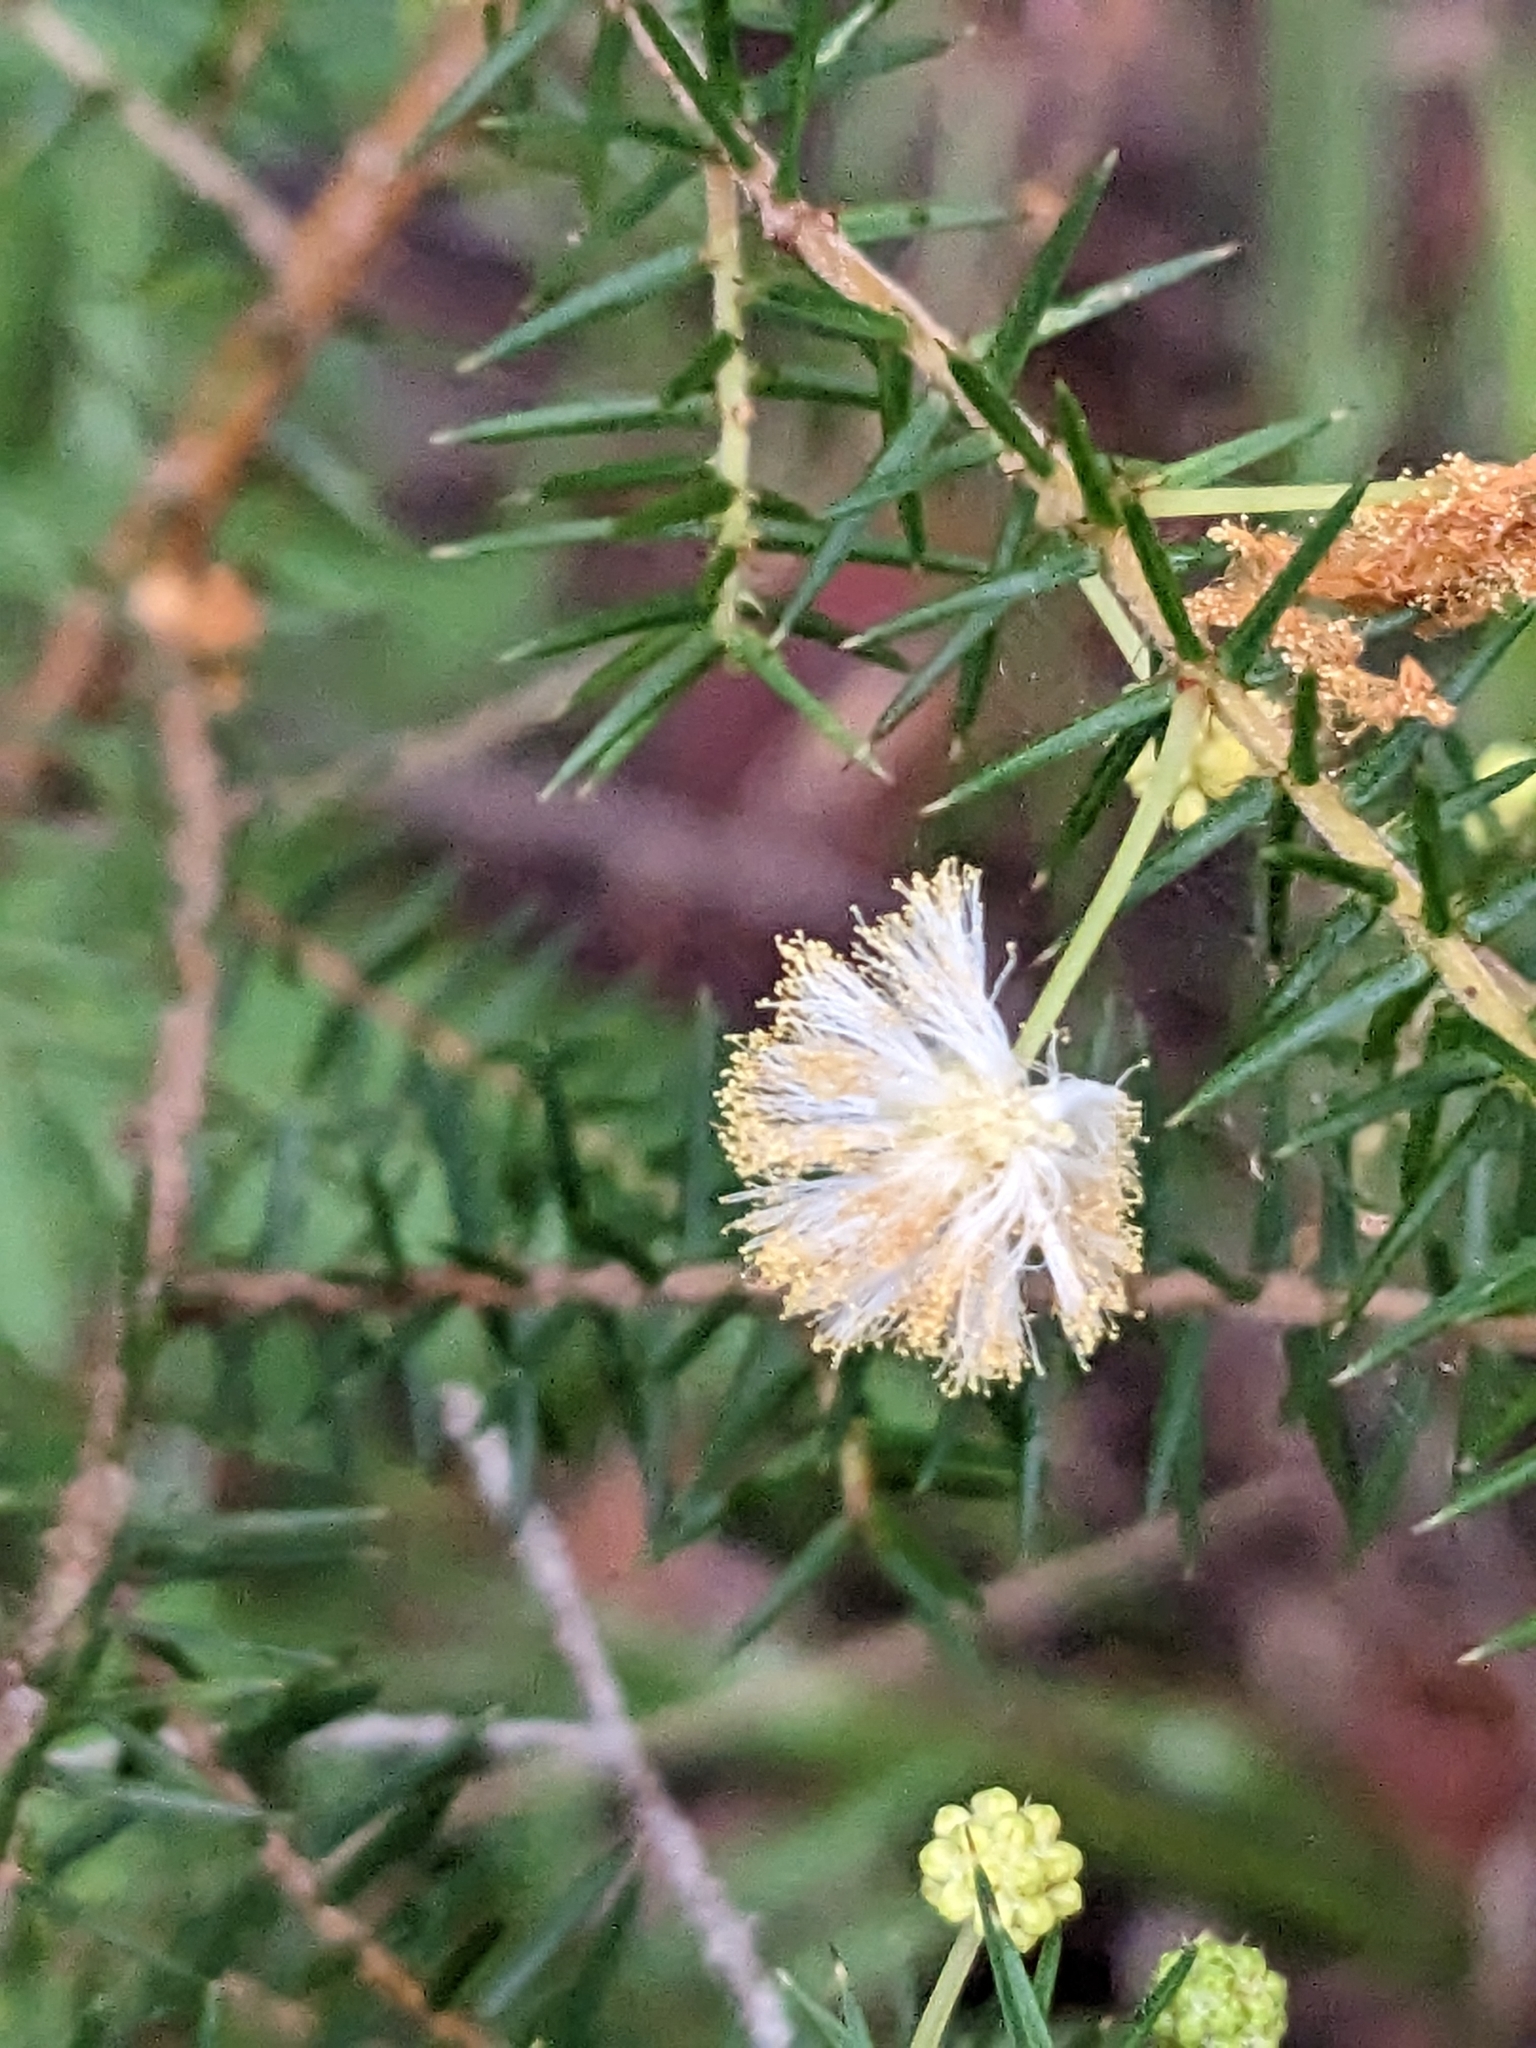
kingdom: Plantae
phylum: Tracheophyta
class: Magnoliopsida
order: Fabales
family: Fabaceae
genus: Acacia
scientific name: Acacia ulicifolia
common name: Juniper wattle
